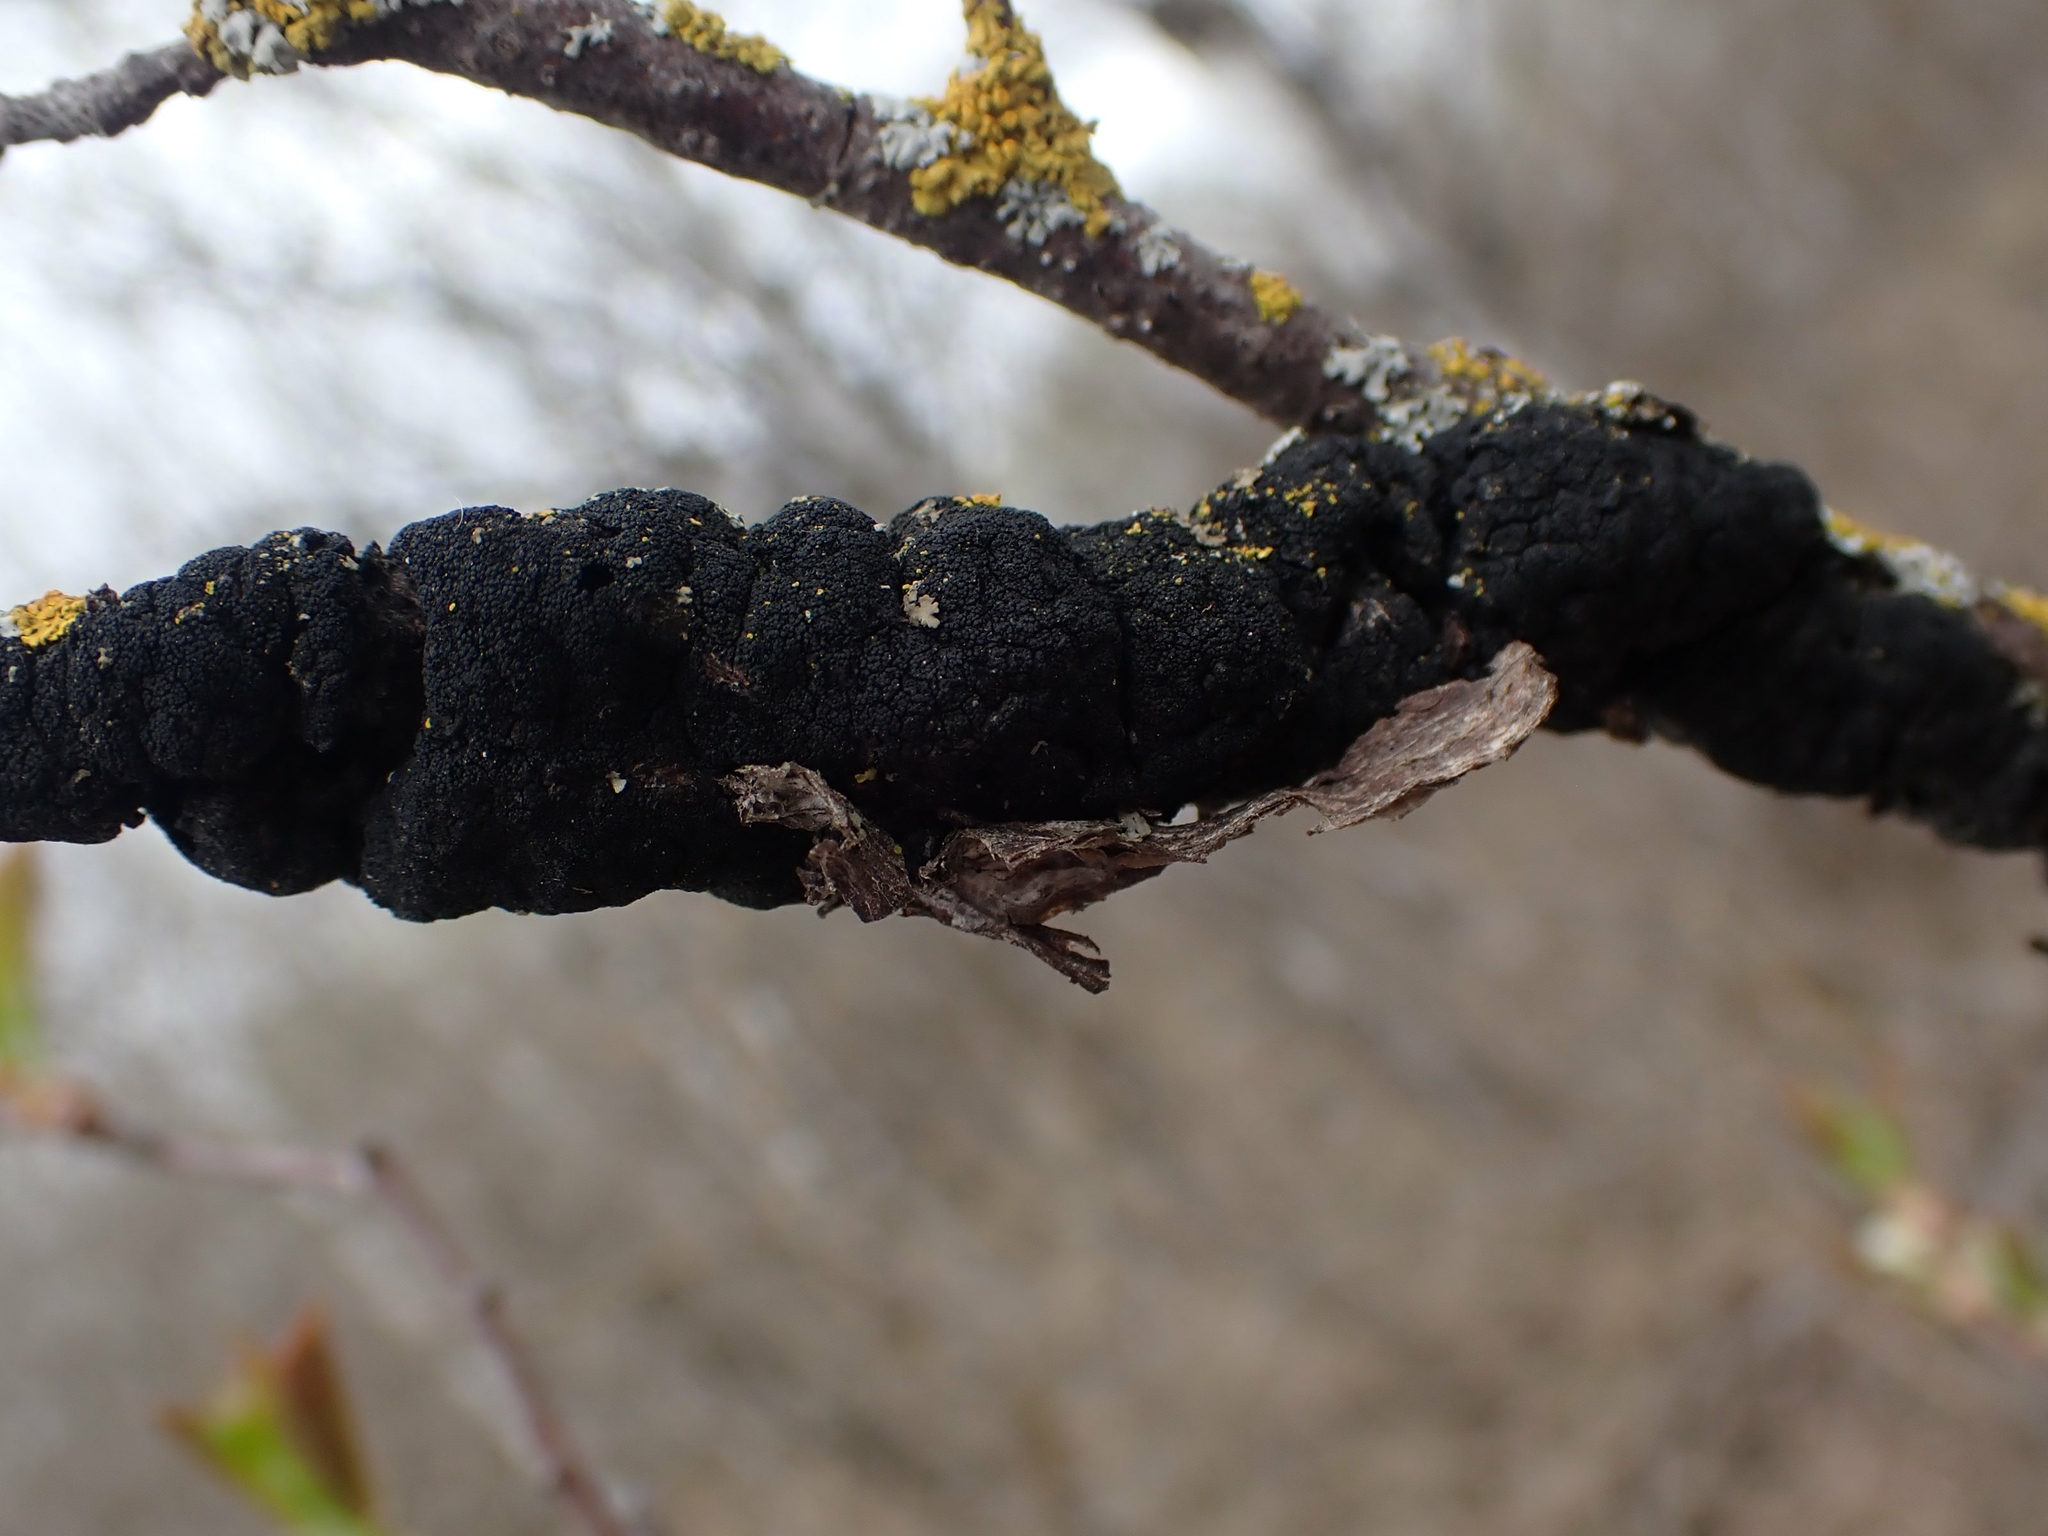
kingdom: Fungi
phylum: Ascomycota
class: Dothideomycetes
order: Venturiales
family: Venturiaceae
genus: Apiosporina
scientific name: Apiosporina morbosa
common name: Black knot
